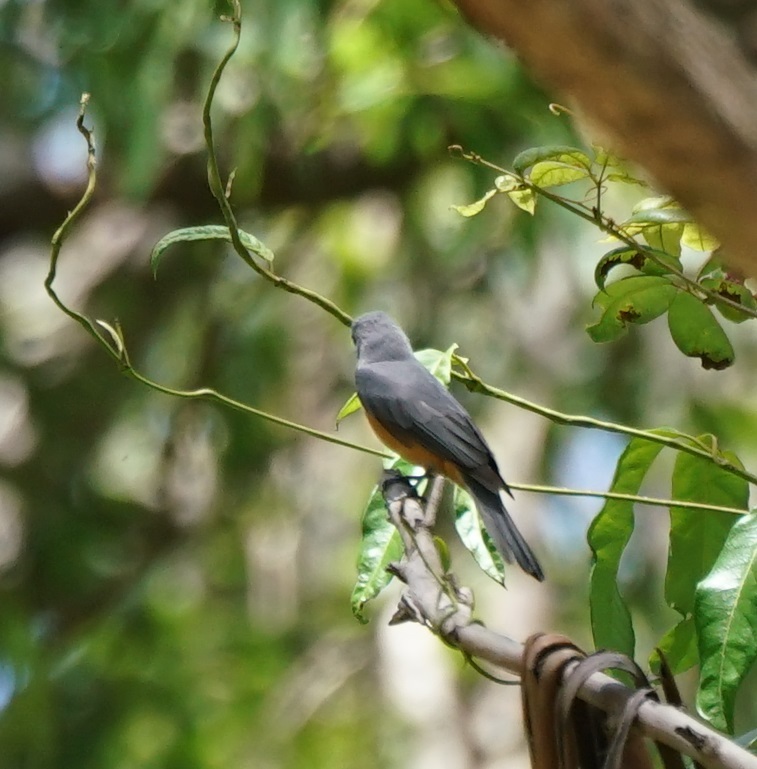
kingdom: Animalia
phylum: Chordata
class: Aves
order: Passeriformes
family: Monarchidae
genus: Monarcha
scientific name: Monarcha melanopsis
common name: Black-faced monarch
